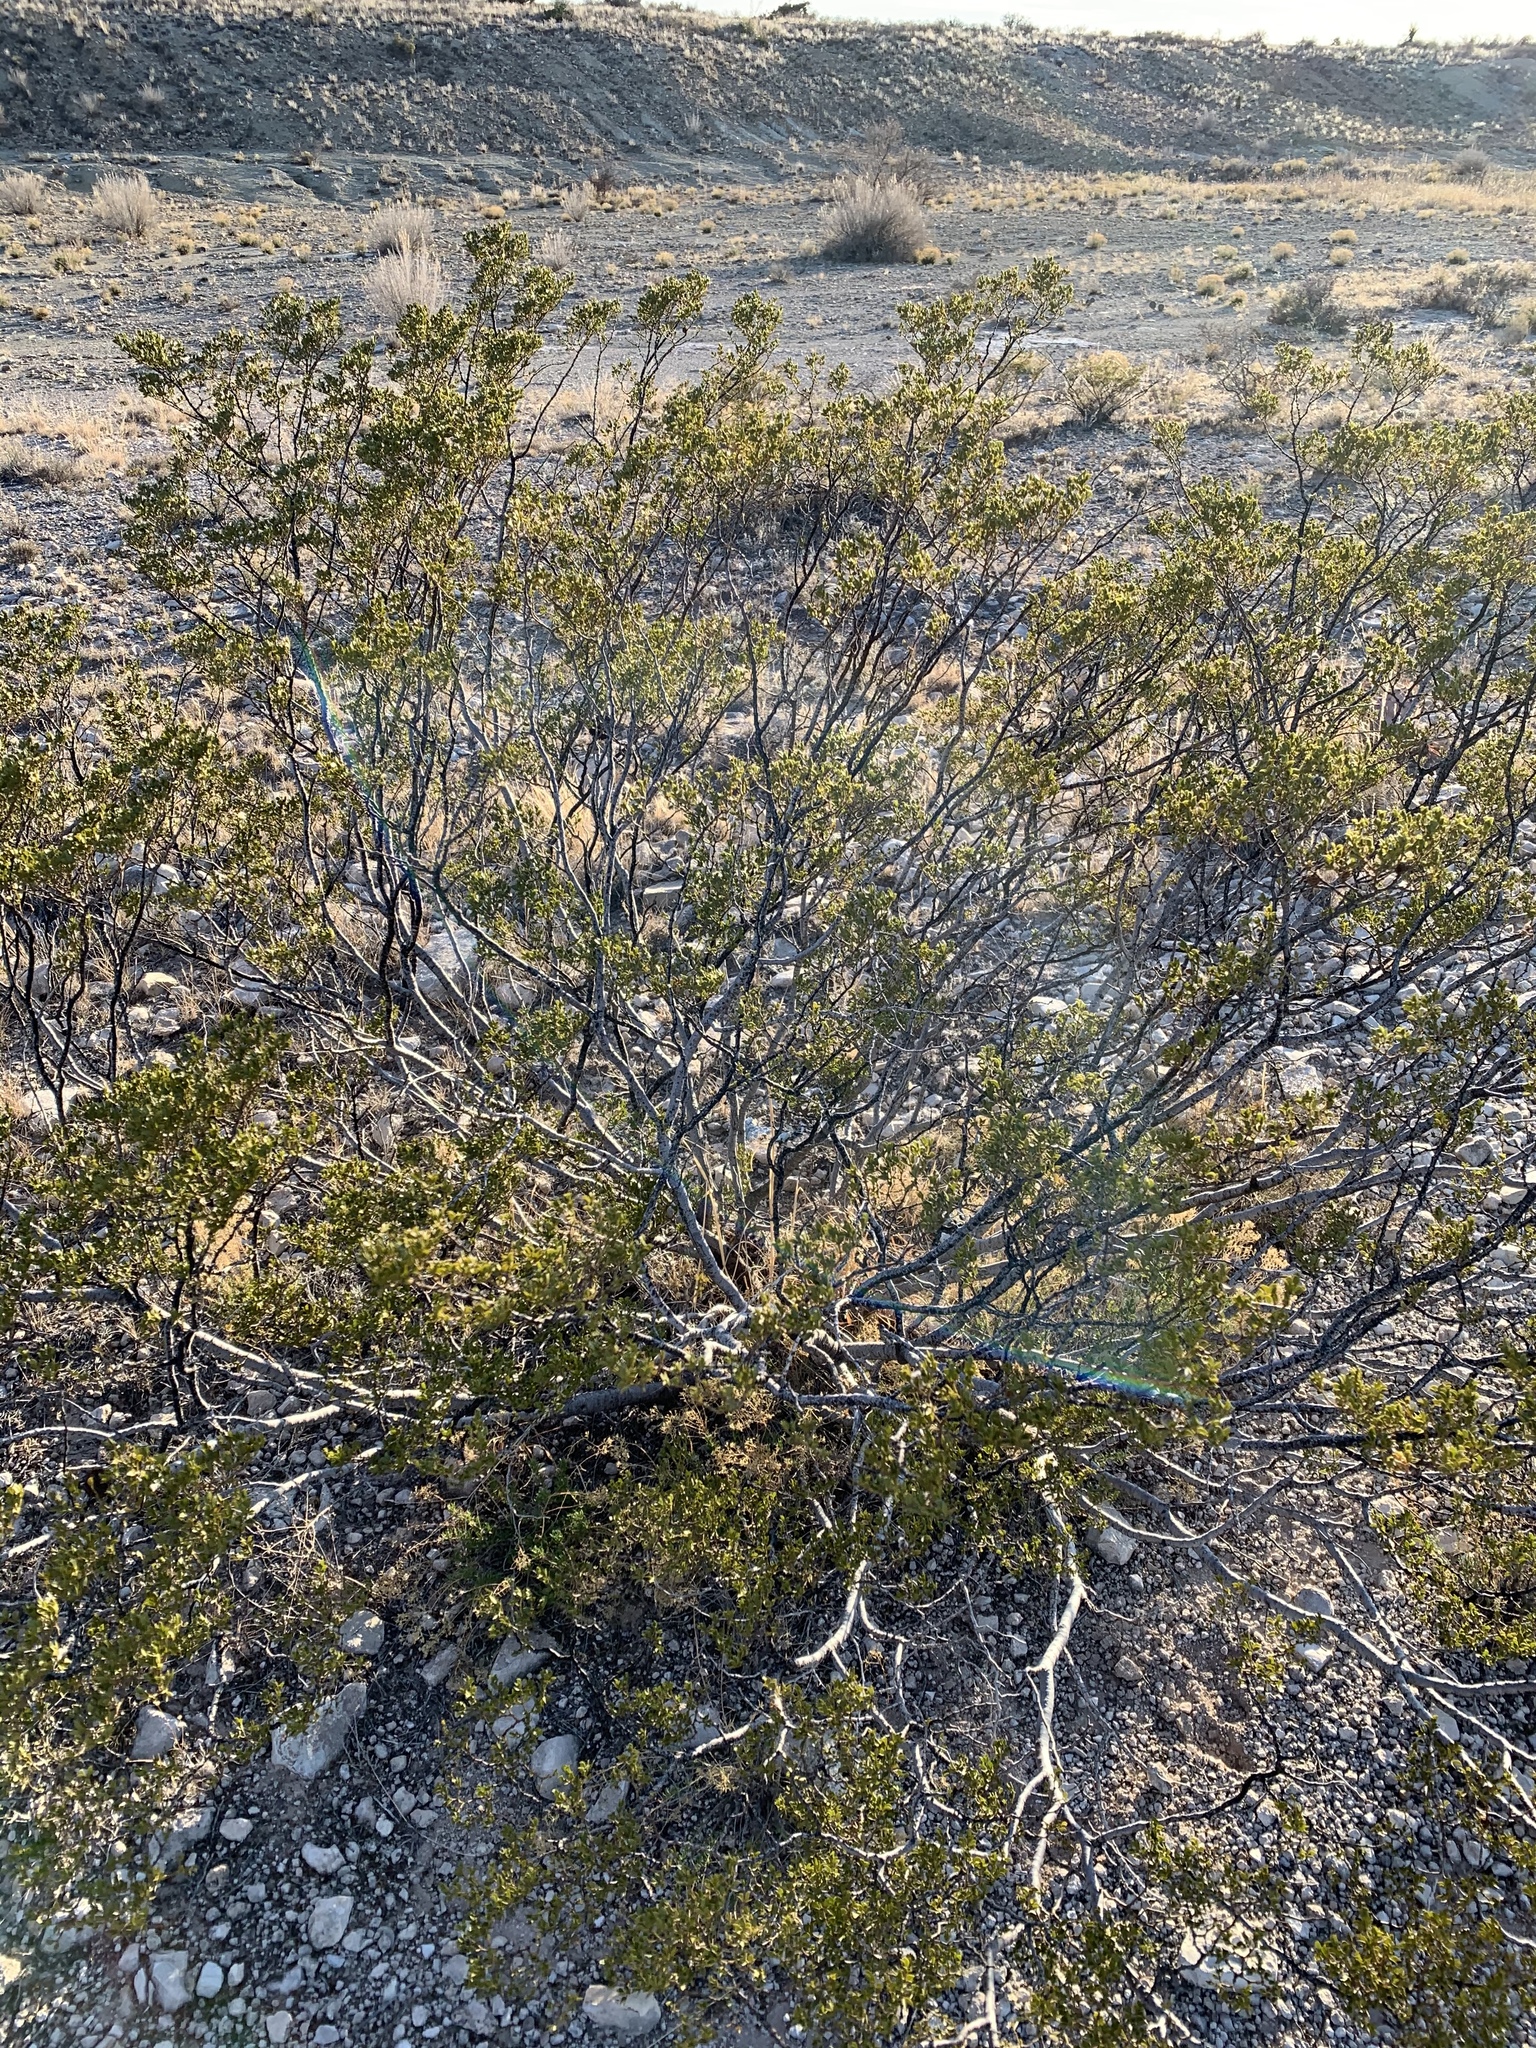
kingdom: Plantae
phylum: Tracheophyta
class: Magnoliopsida
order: Zygophyllales
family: Zygophyllaceae
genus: Larrea
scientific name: Larrea tridentata
